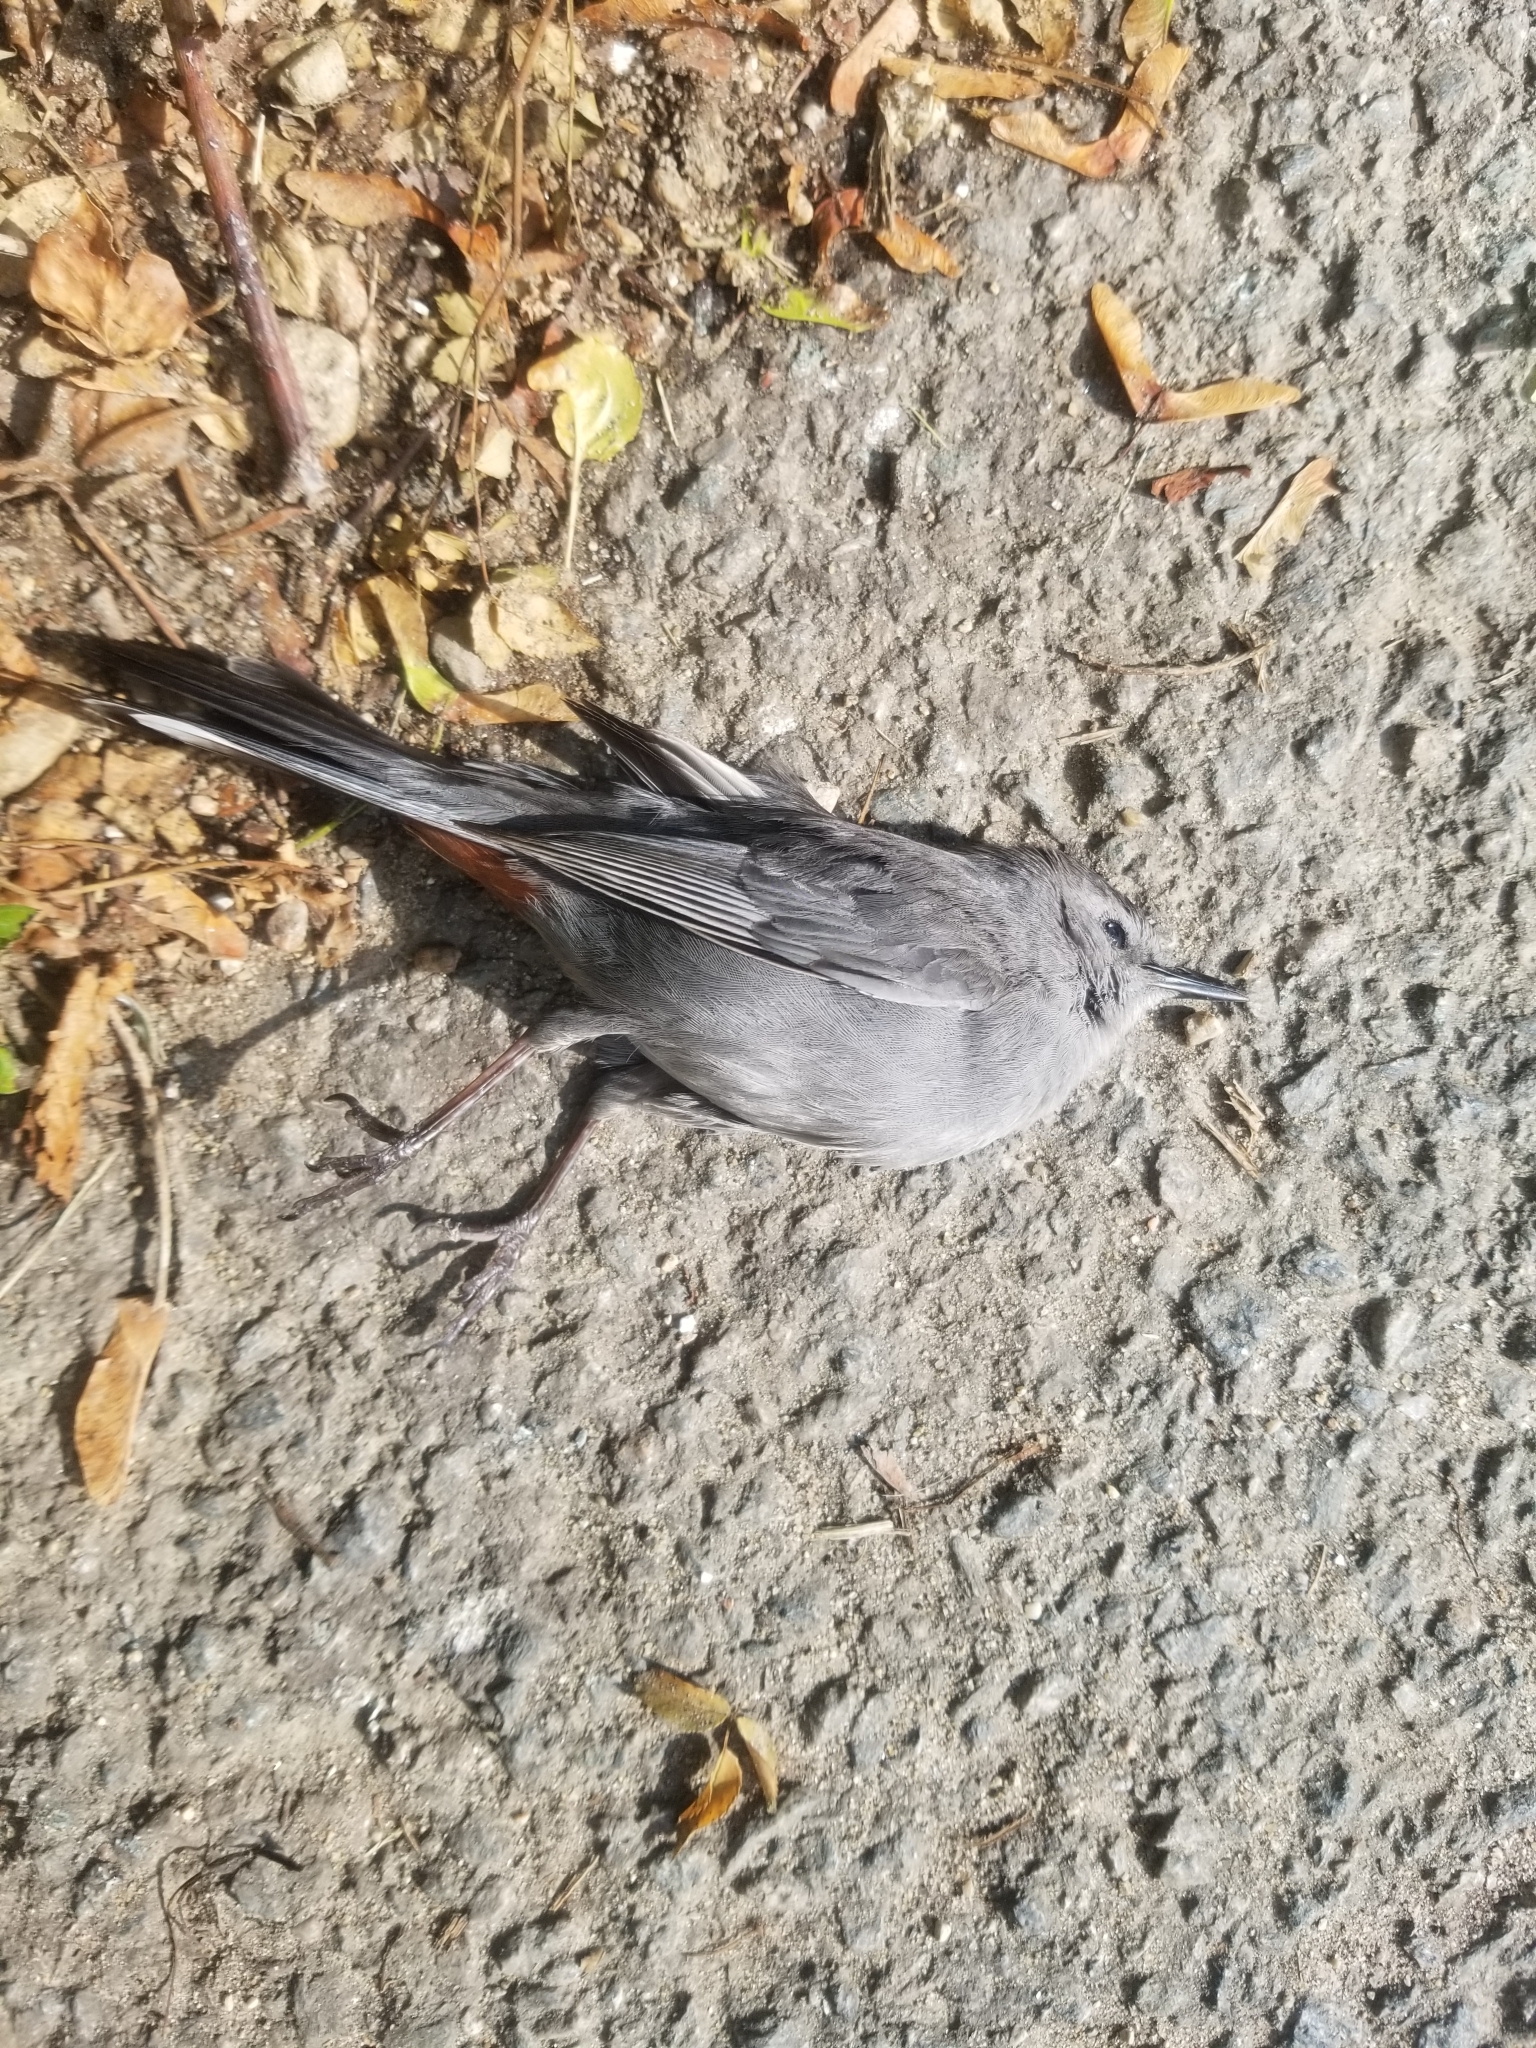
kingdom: Animalia
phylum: Chordata
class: Aves
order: Passeriformes
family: Mimidae
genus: Dumetella
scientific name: Dumetella carolinensis
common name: Gray catbird
